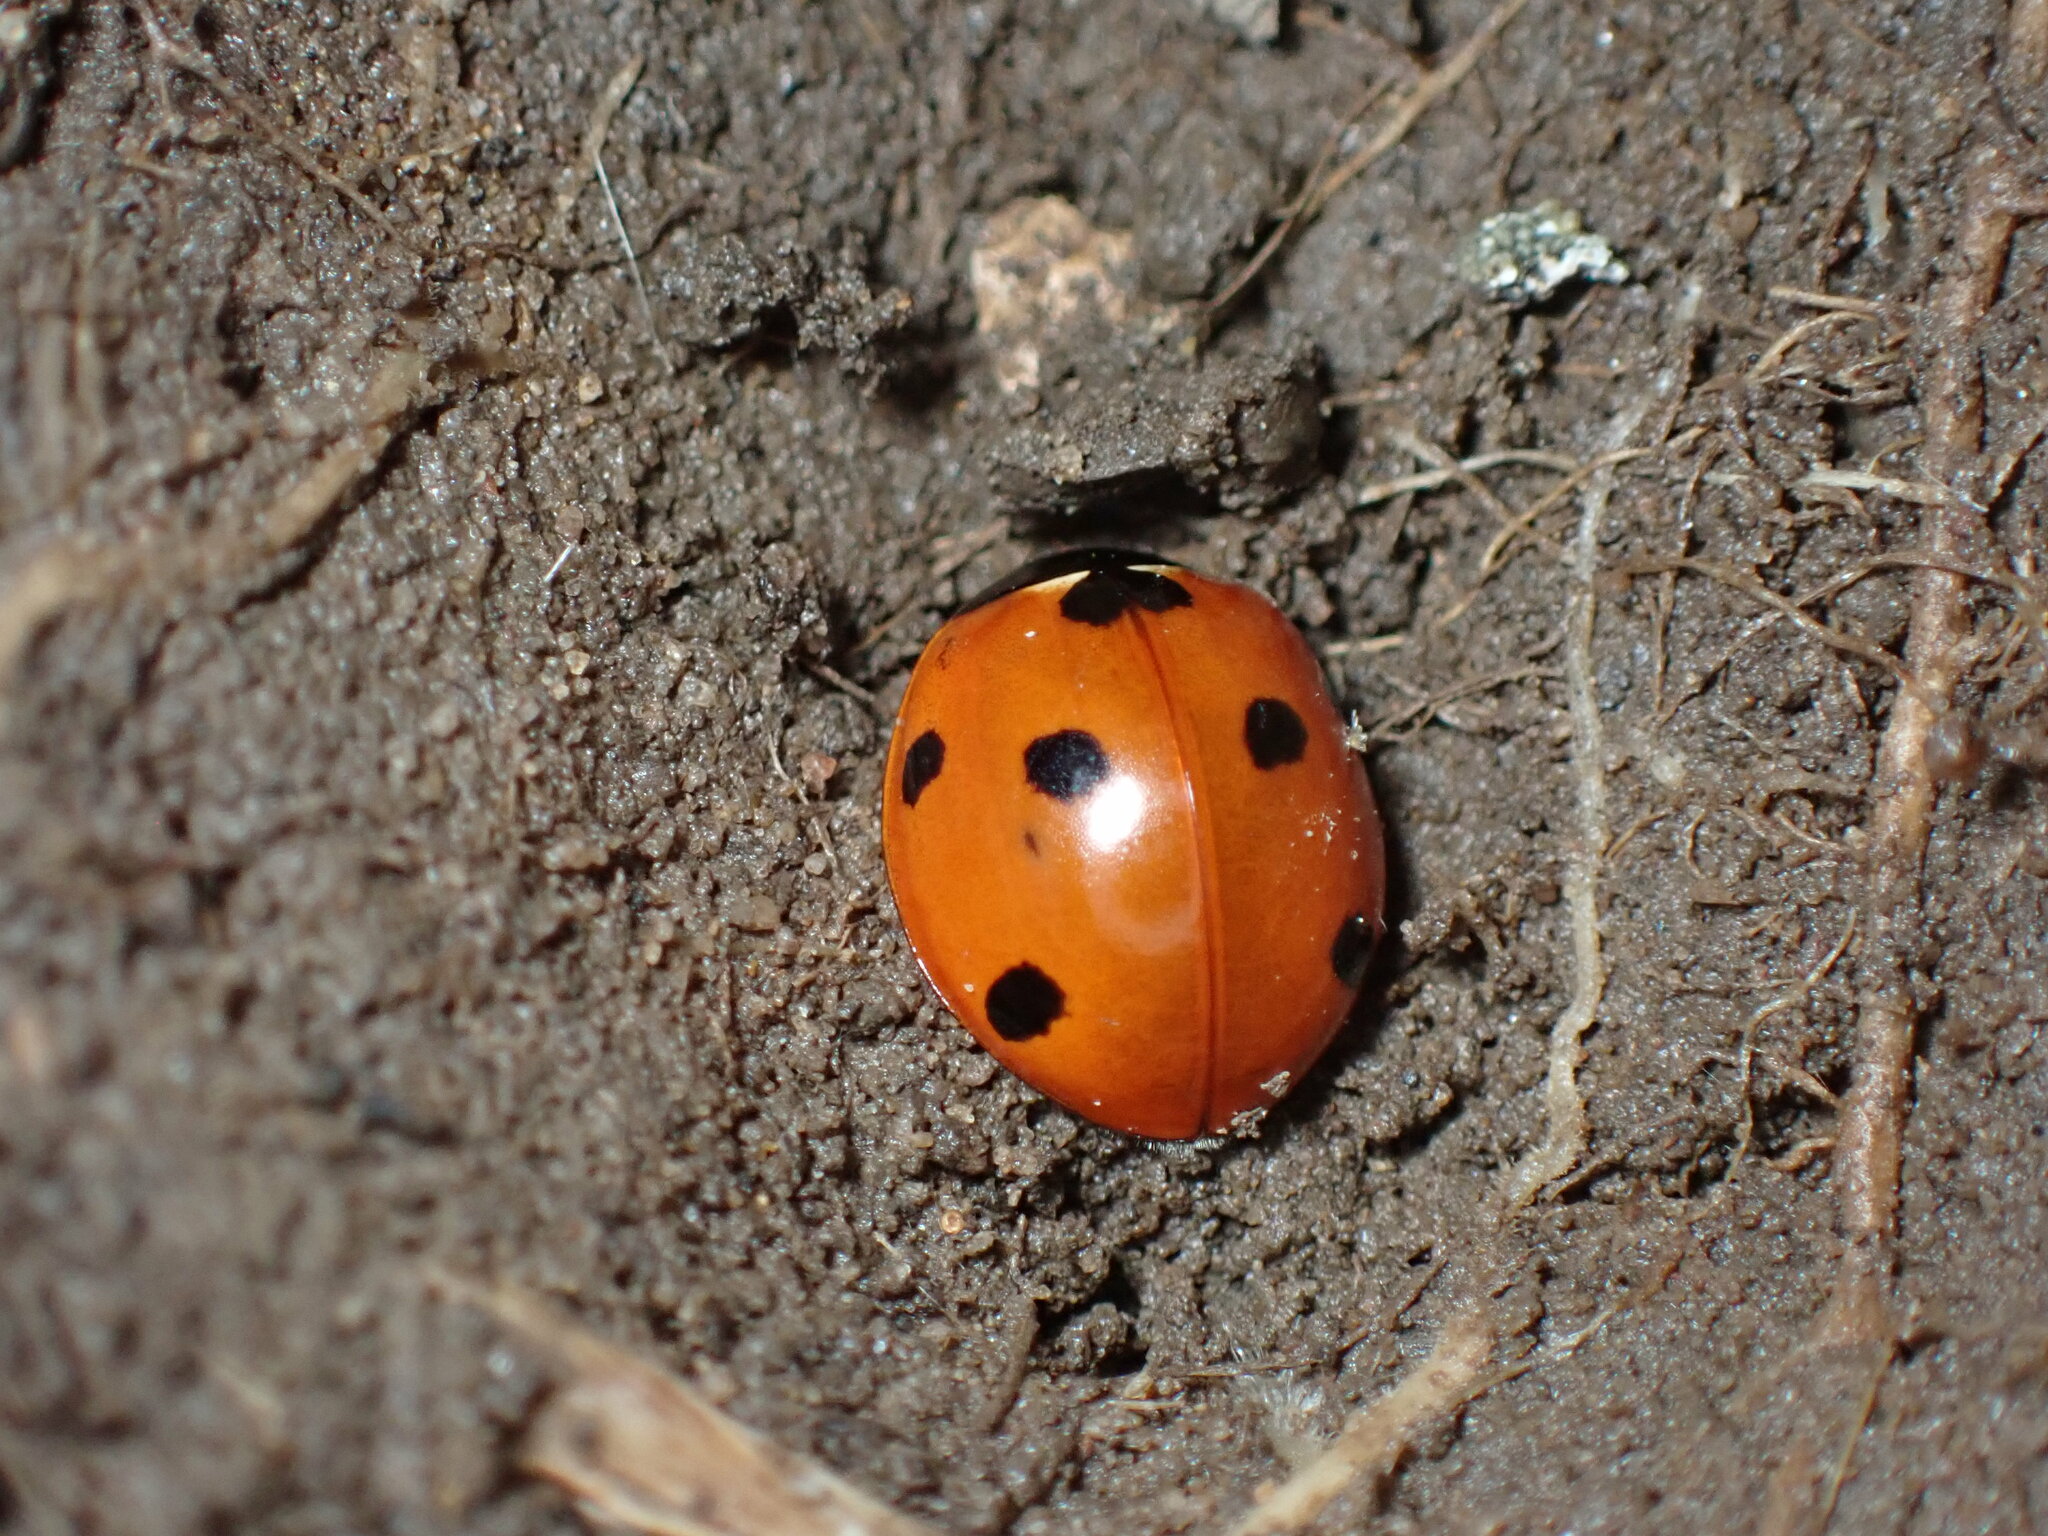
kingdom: Animalia
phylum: Arthropoda
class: Insecta
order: Coleoptera
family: Coccinellidae
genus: Coccinella
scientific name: Coccinella septempunctata
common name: Sevenspotted lady beetle
